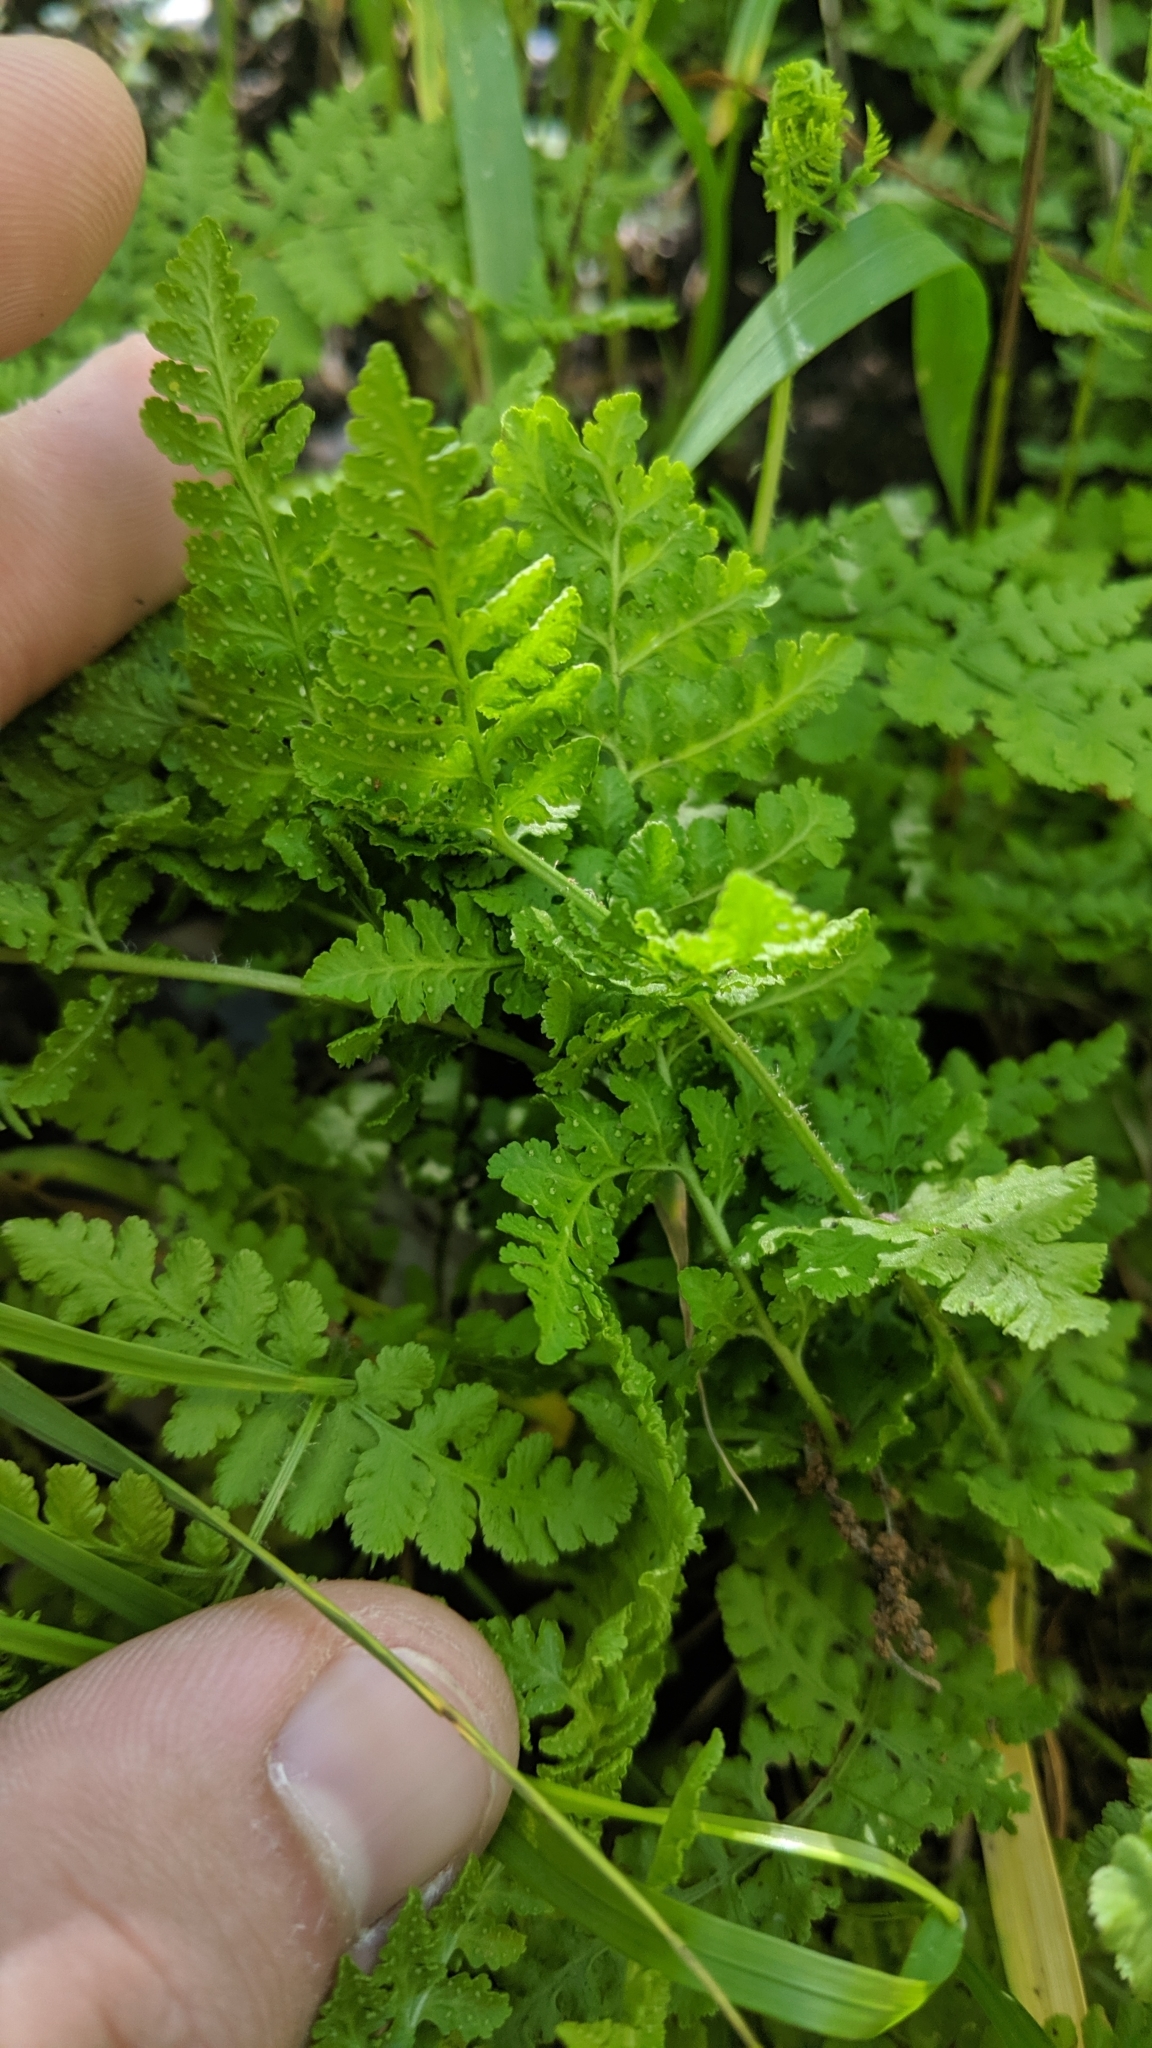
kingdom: Plantae
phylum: Tracheophyta
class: Polypodiopsida
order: Polypodiales
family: Woodsiaceae
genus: Physematium
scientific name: Physematium obtusum
